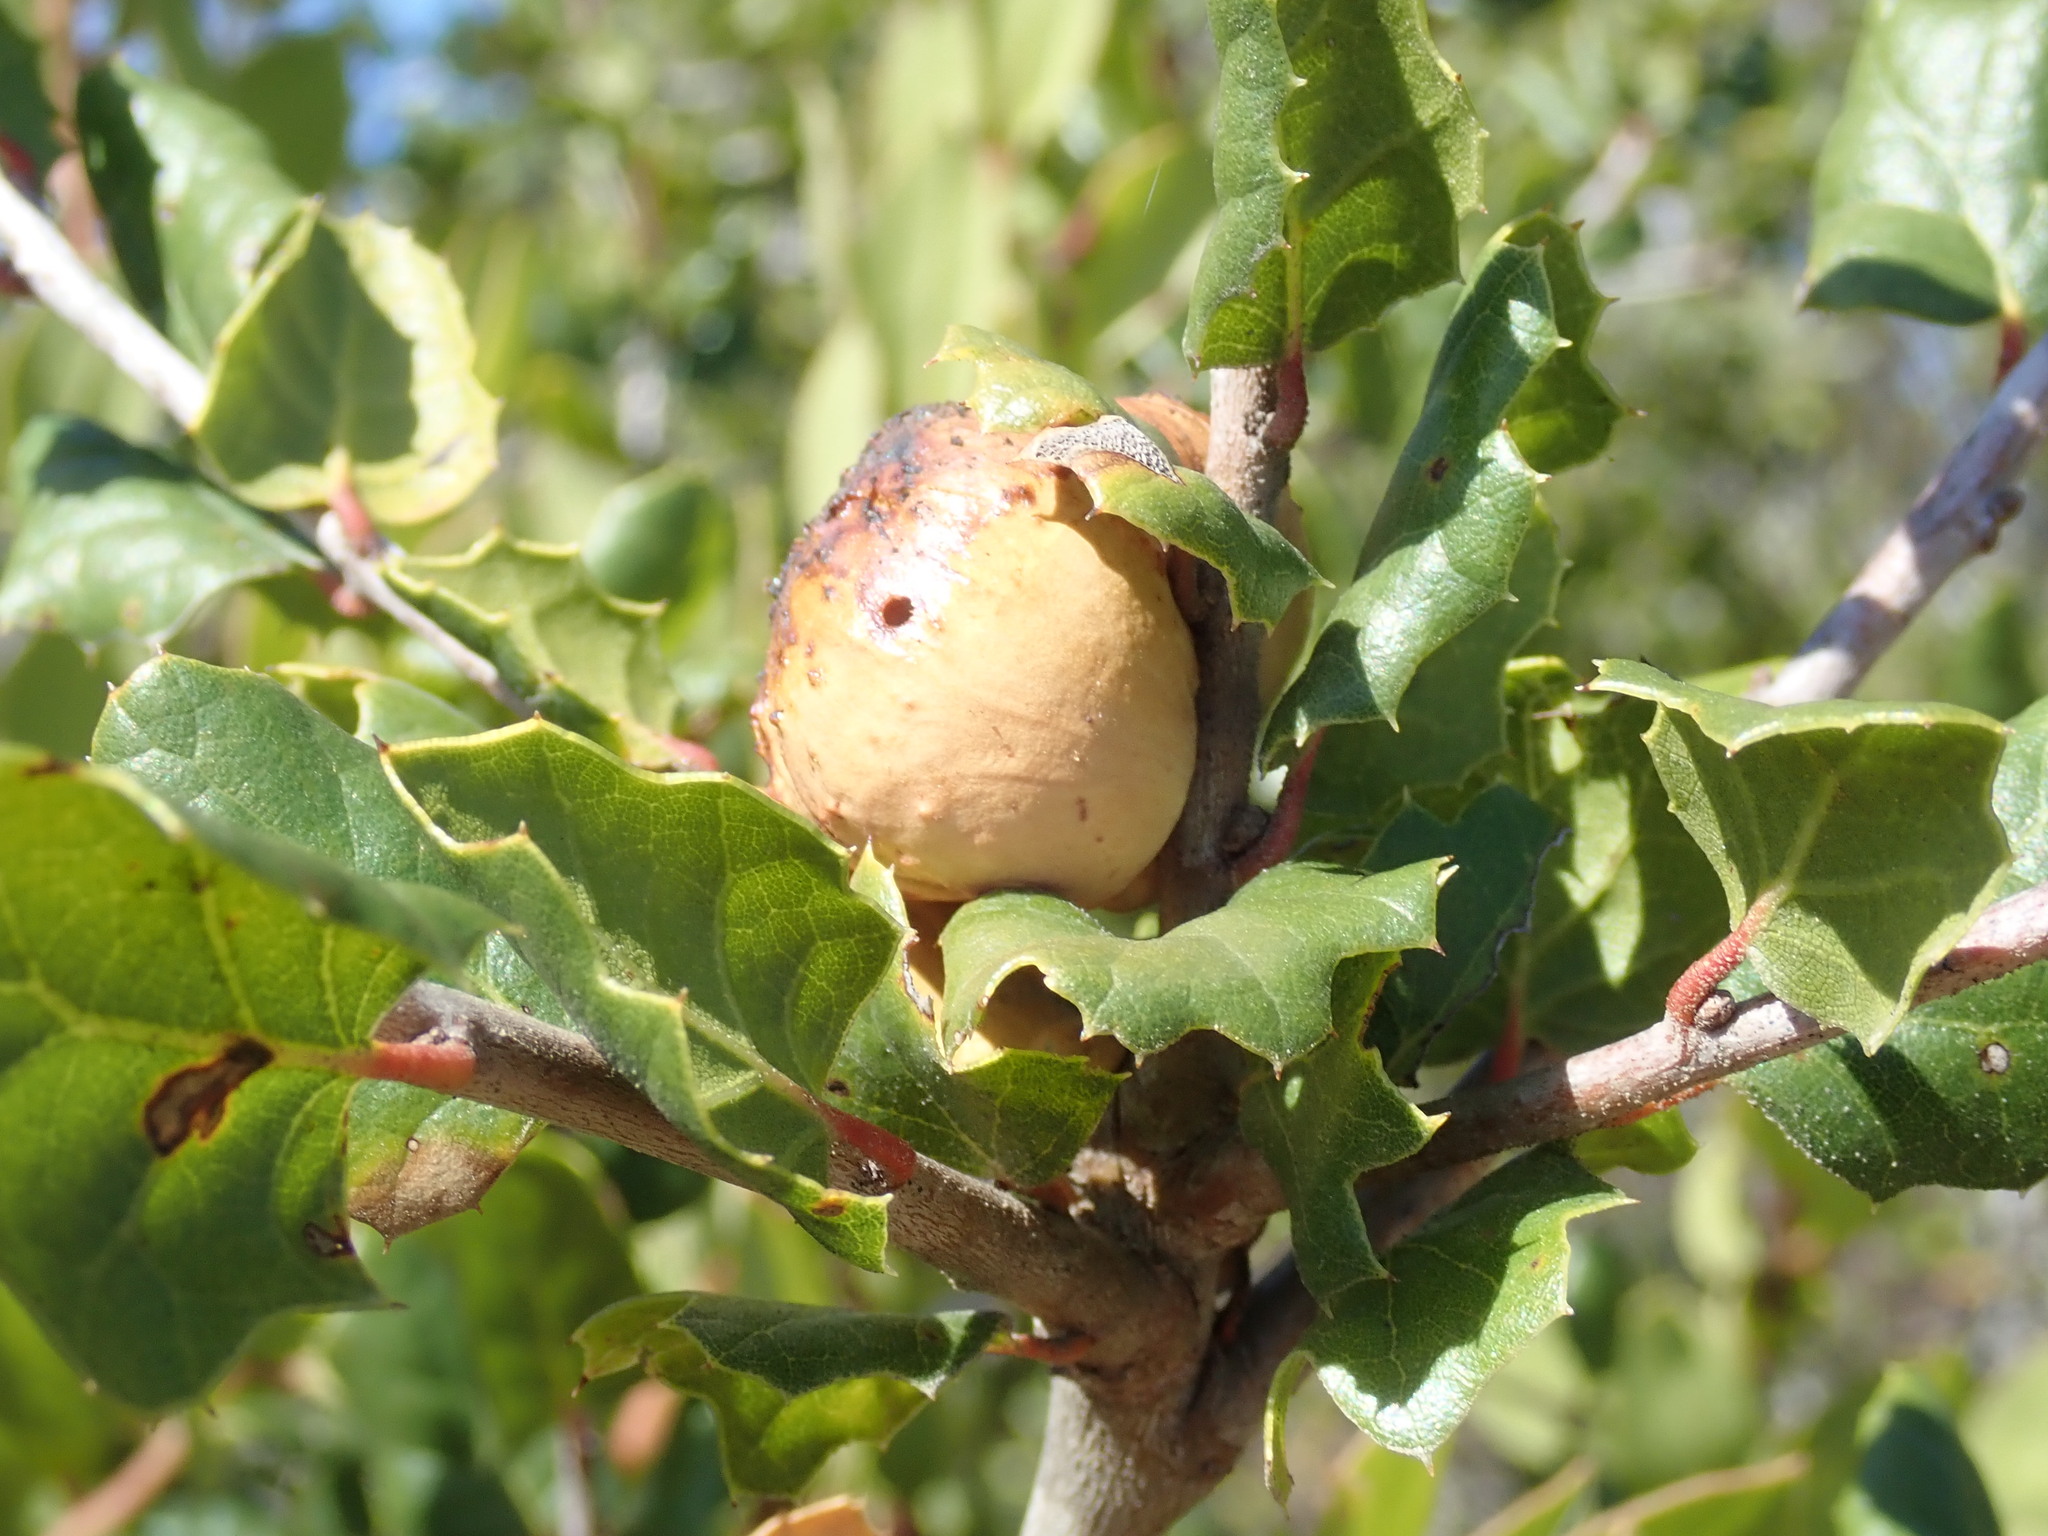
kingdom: Animalia
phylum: Arthropoda
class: Insecta
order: Hymenoptera
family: Cynipidae
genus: Amphibolips
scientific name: Amphibolips quercuspomiformis
